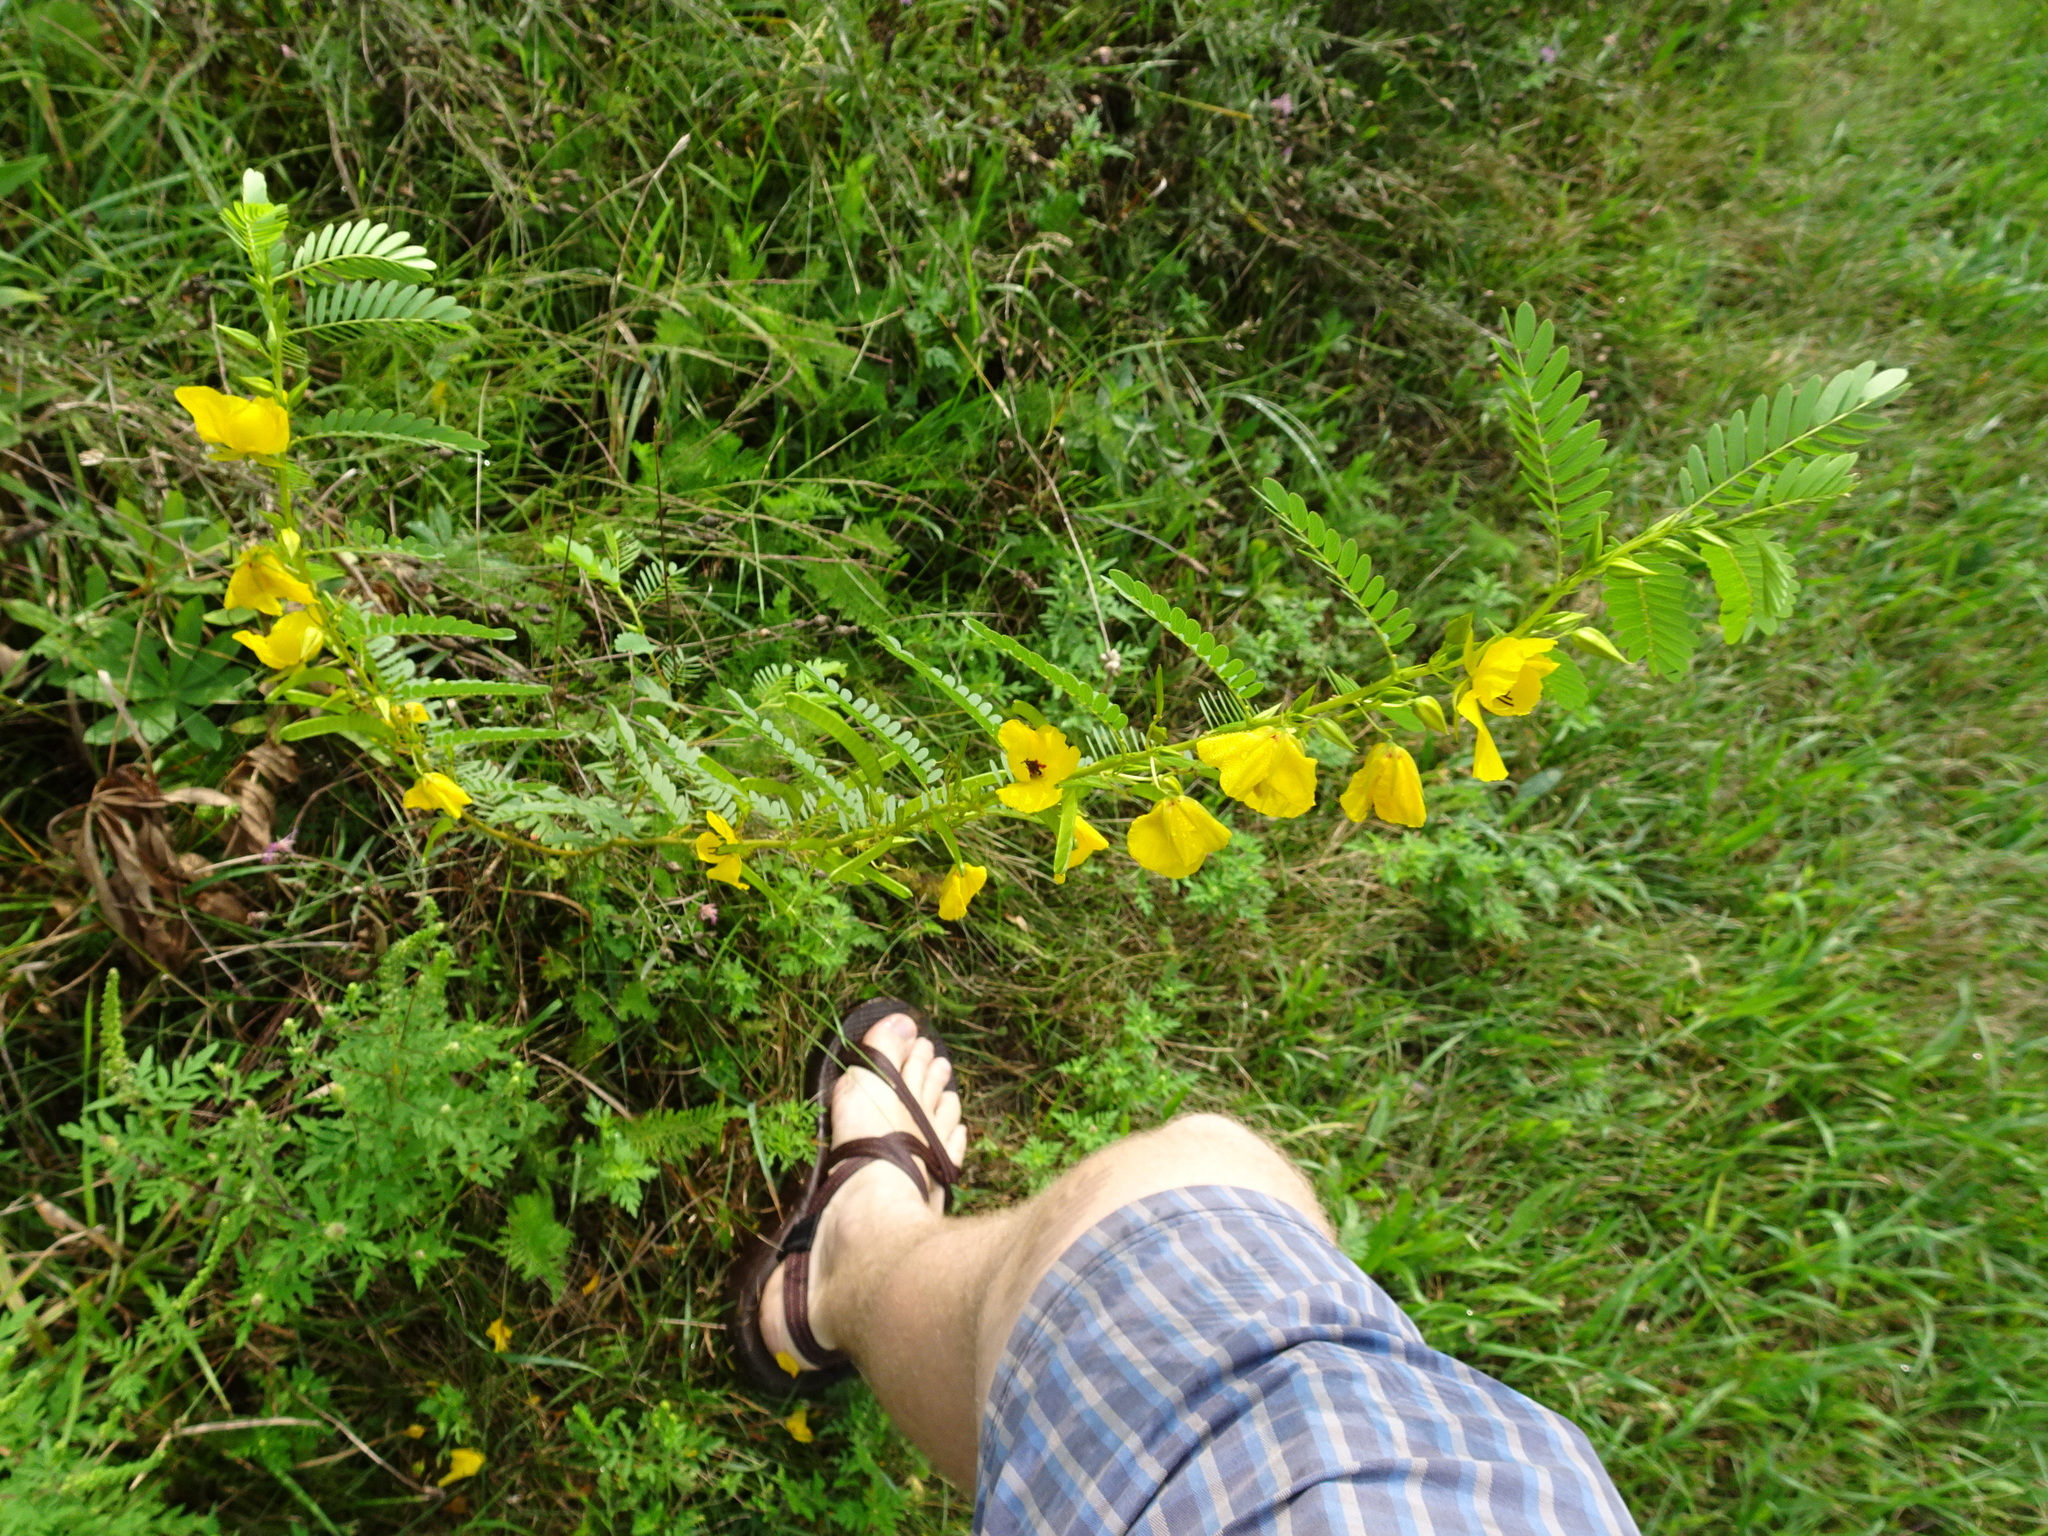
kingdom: Plantae
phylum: Tracheophyta
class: Magnoliopsida
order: Fabales
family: Fabaceae
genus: Chamaecrista
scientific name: Chamaecrista fasciculata
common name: Golden cassia
